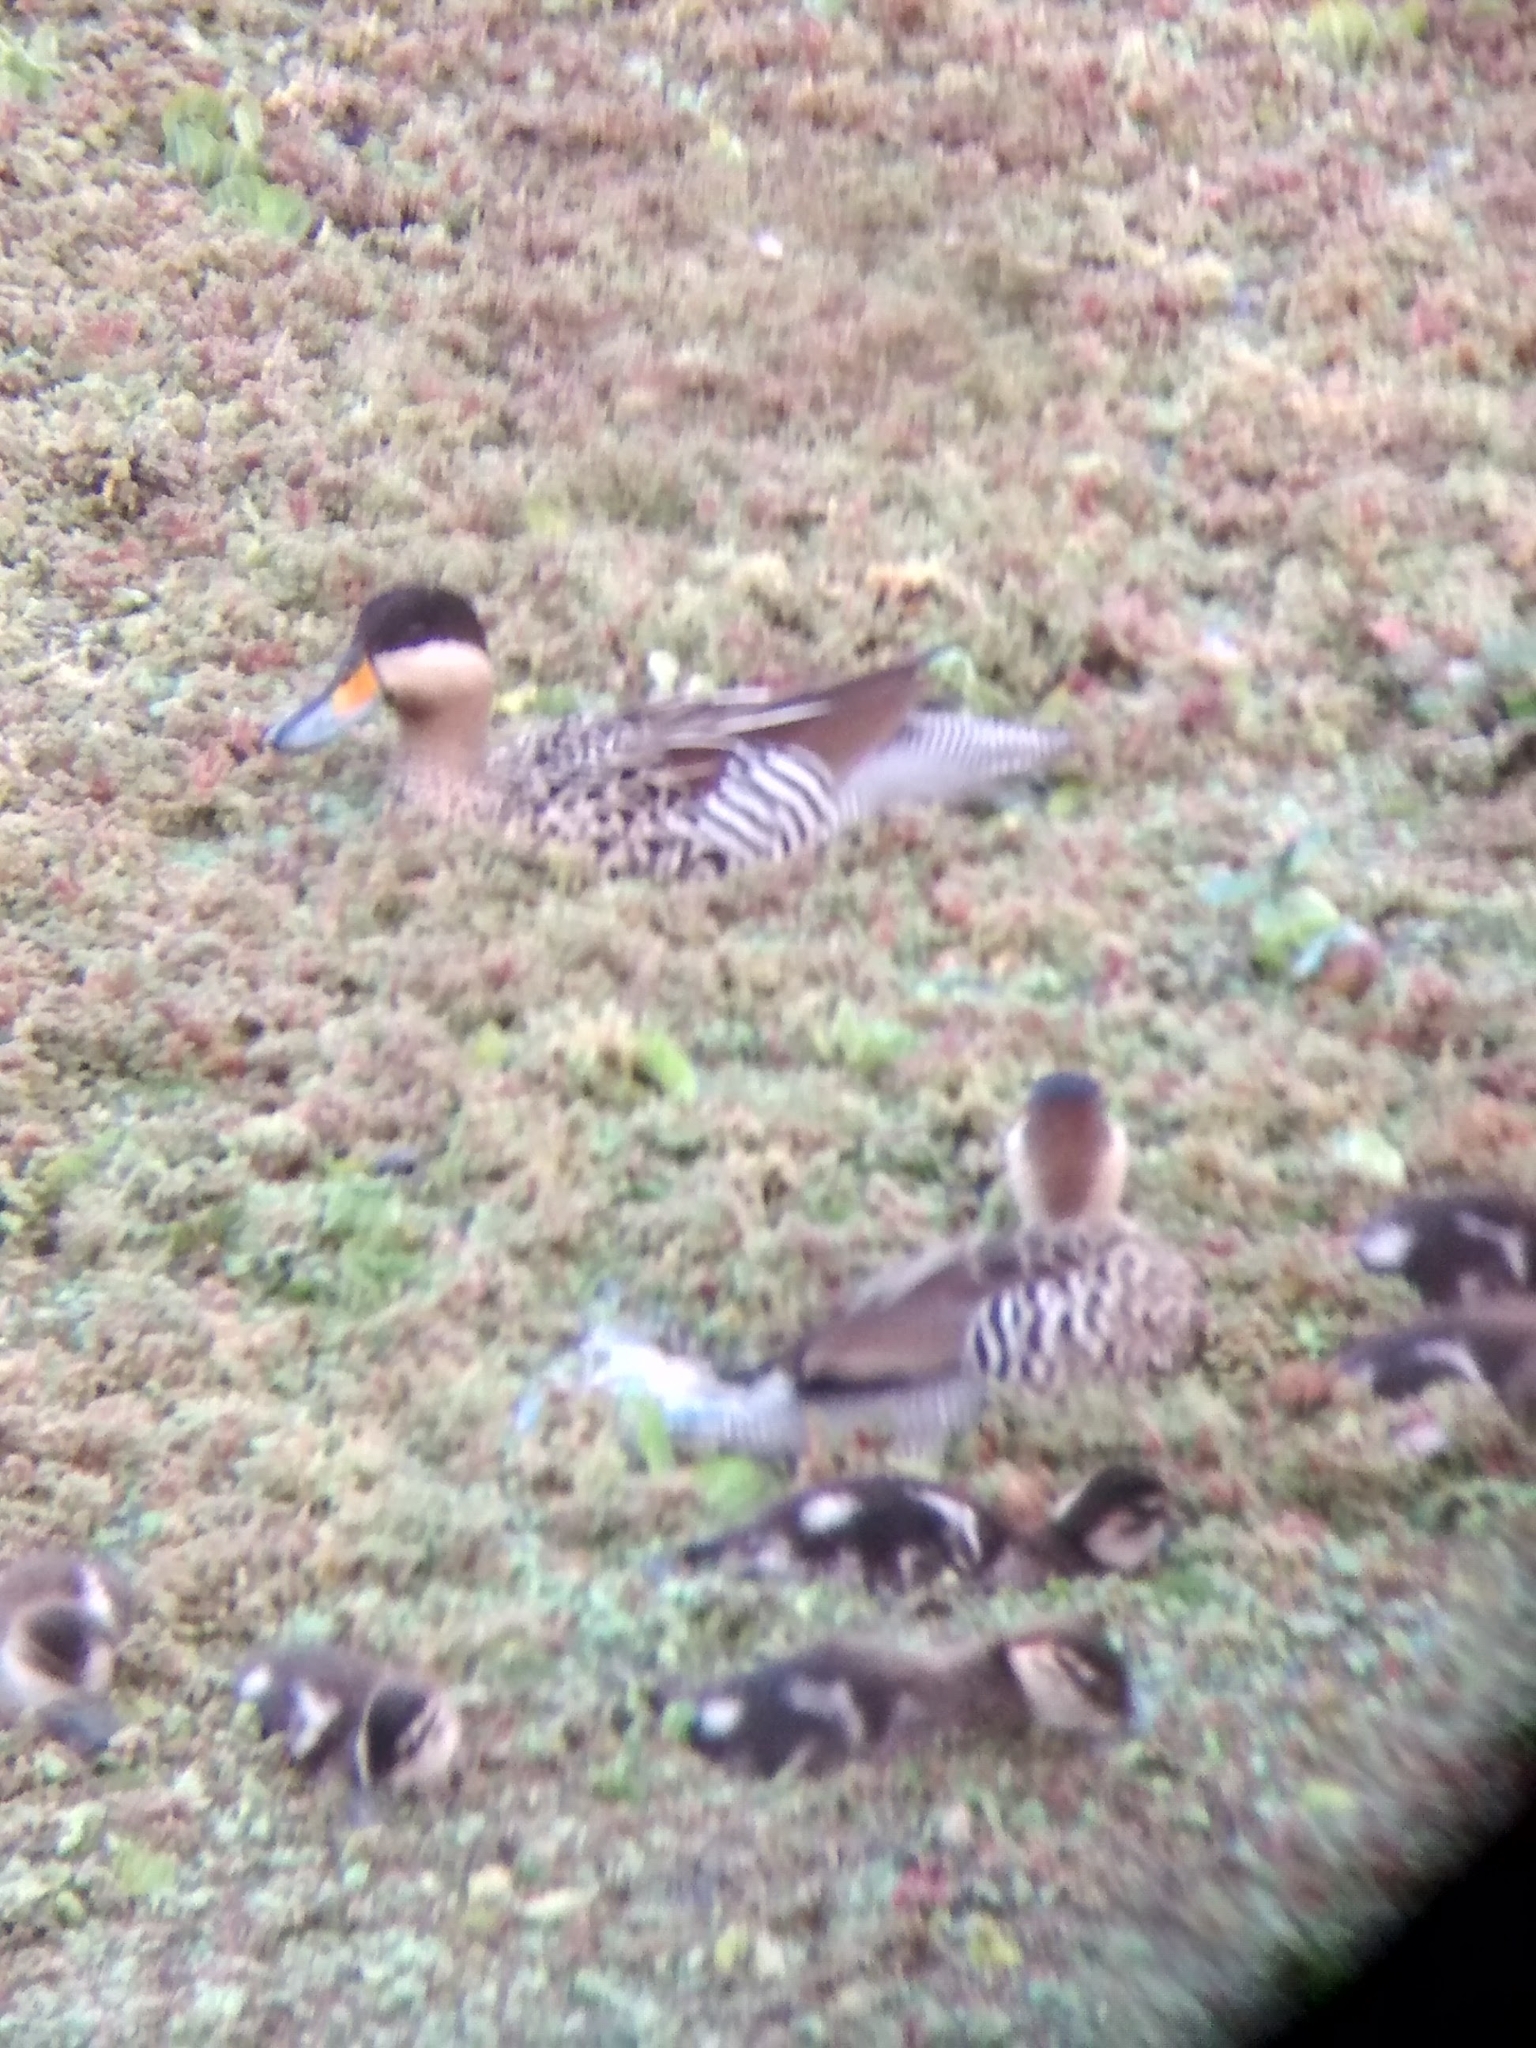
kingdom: Animalia
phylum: Chordata
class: Aves
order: Anseriformes
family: Anatidae
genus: Spatula
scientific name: Spatula versicolor
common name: Silver teal
